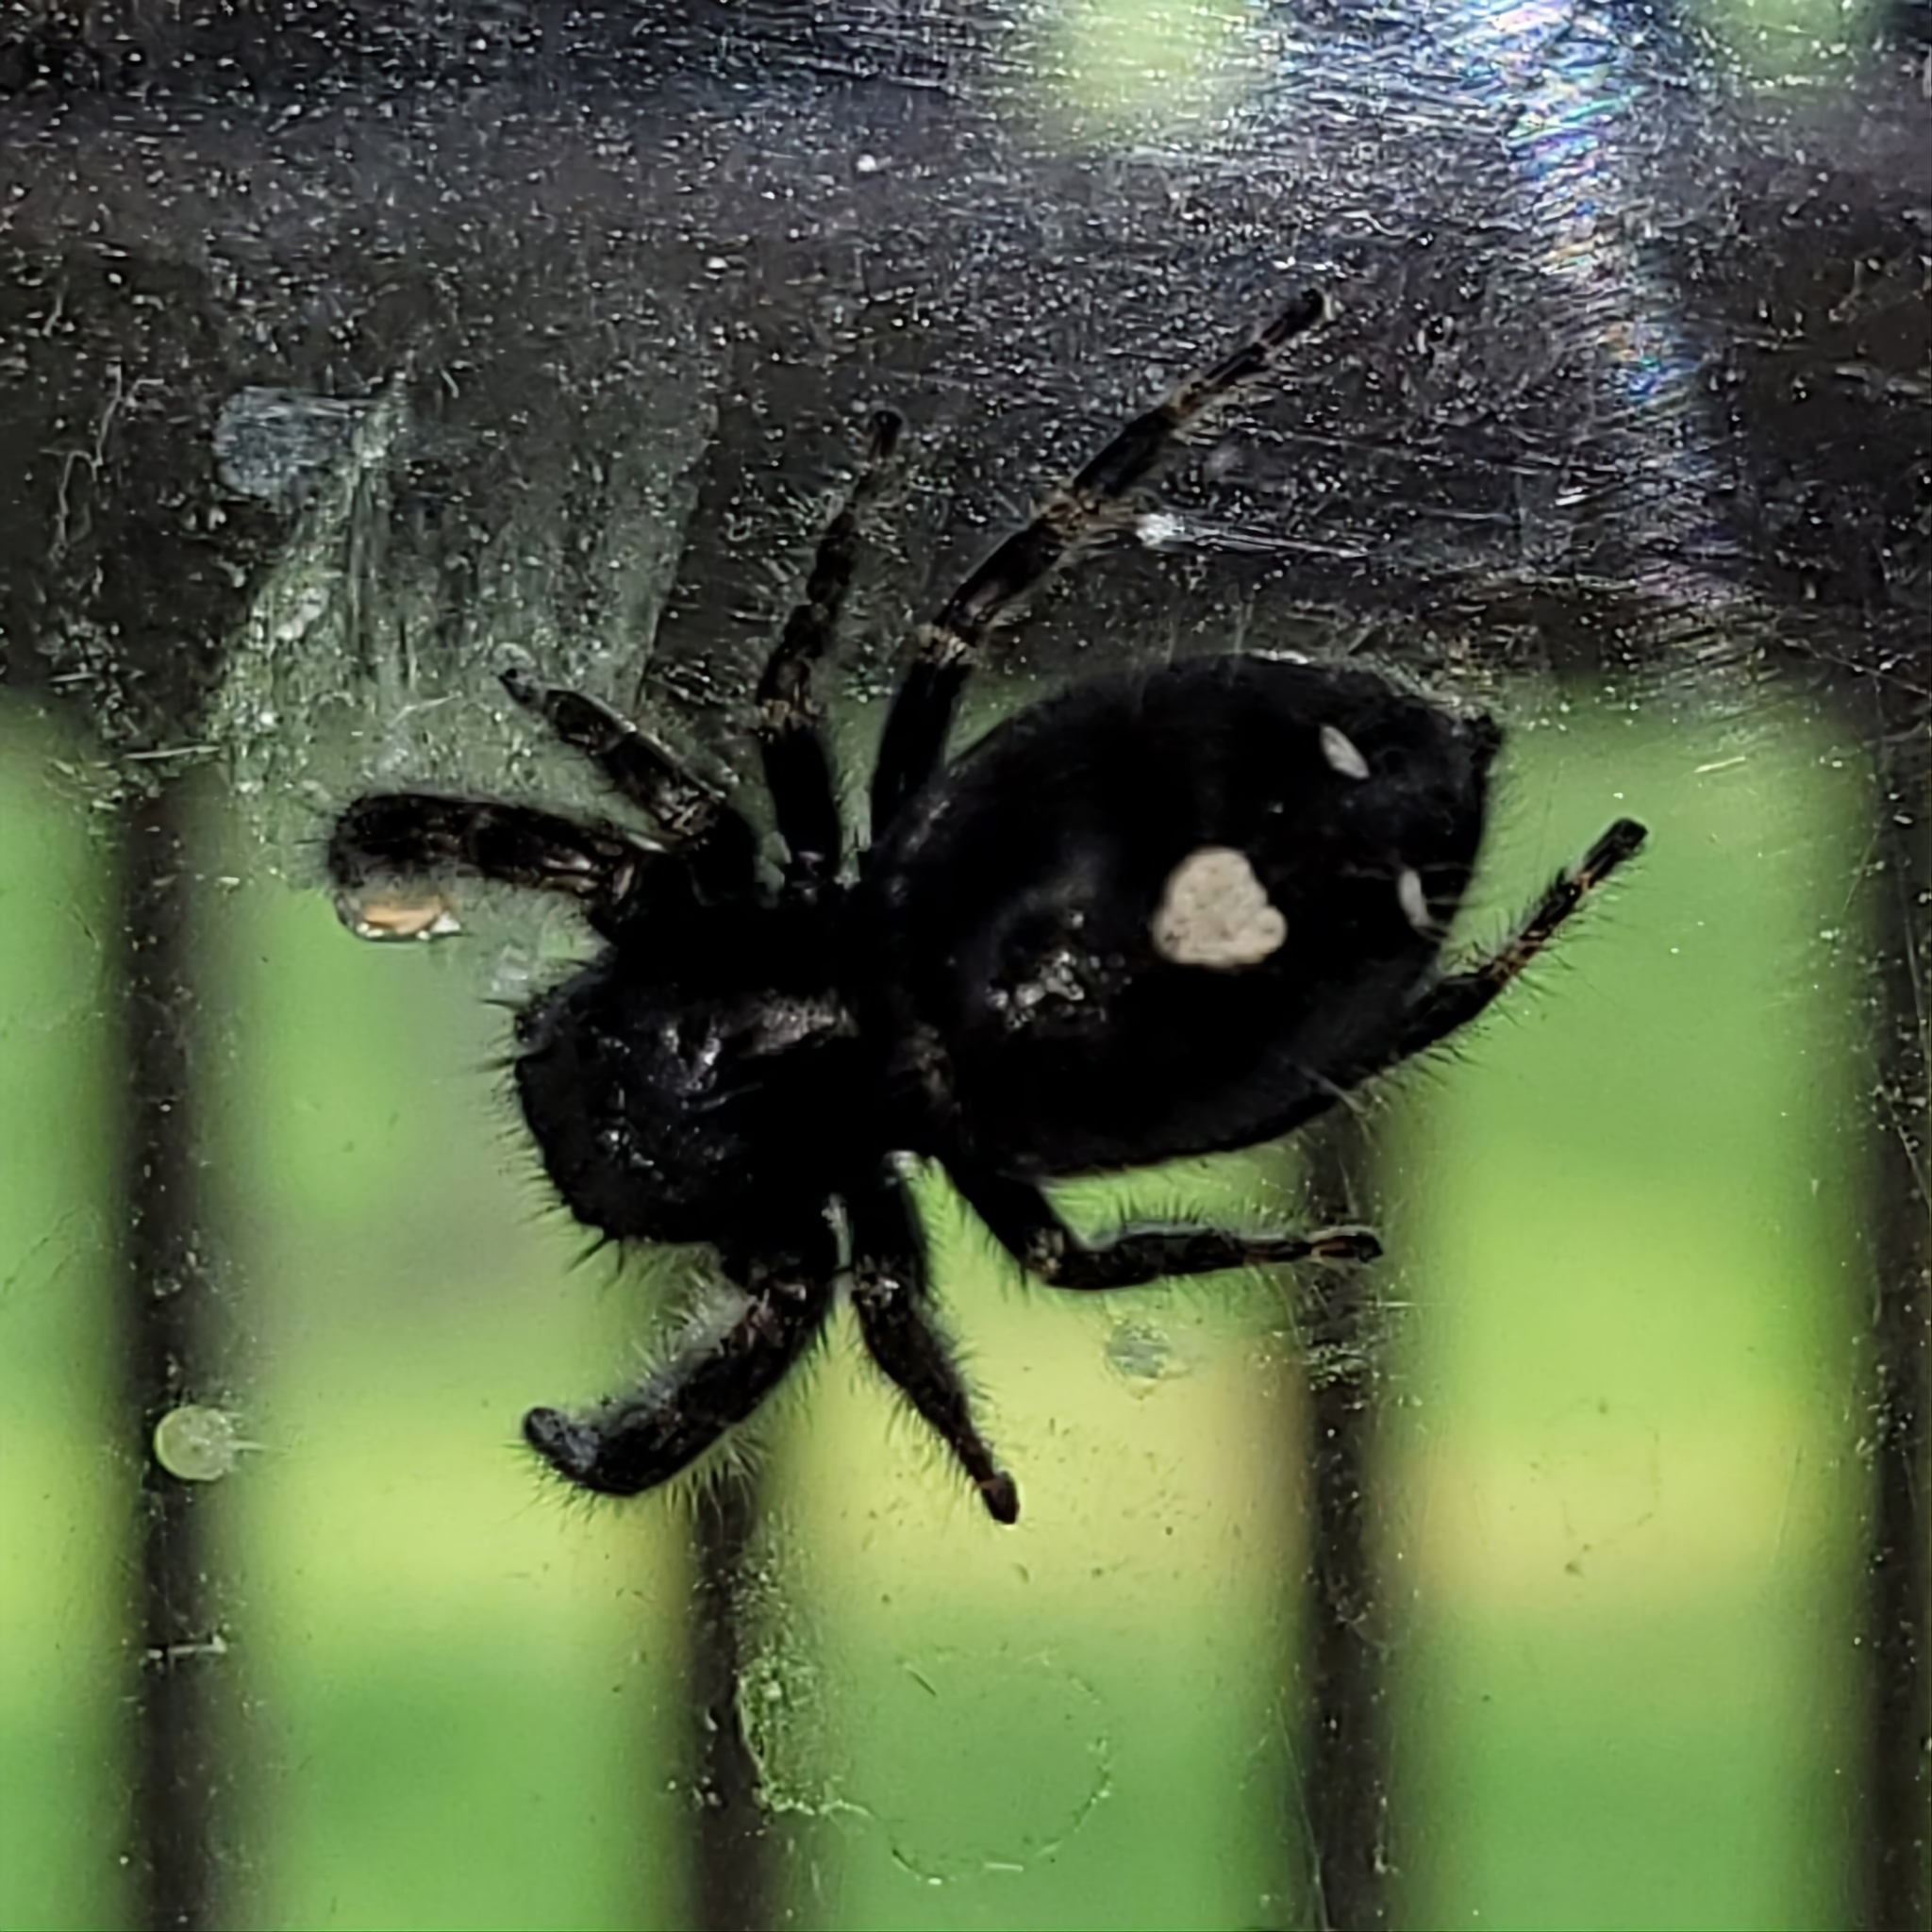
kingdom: Animalia
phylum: Arthropoda
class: Arachnida
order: Araneae
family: Salticidae
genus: Phidippus
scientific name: Phidippus audax
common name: Bold jumper
